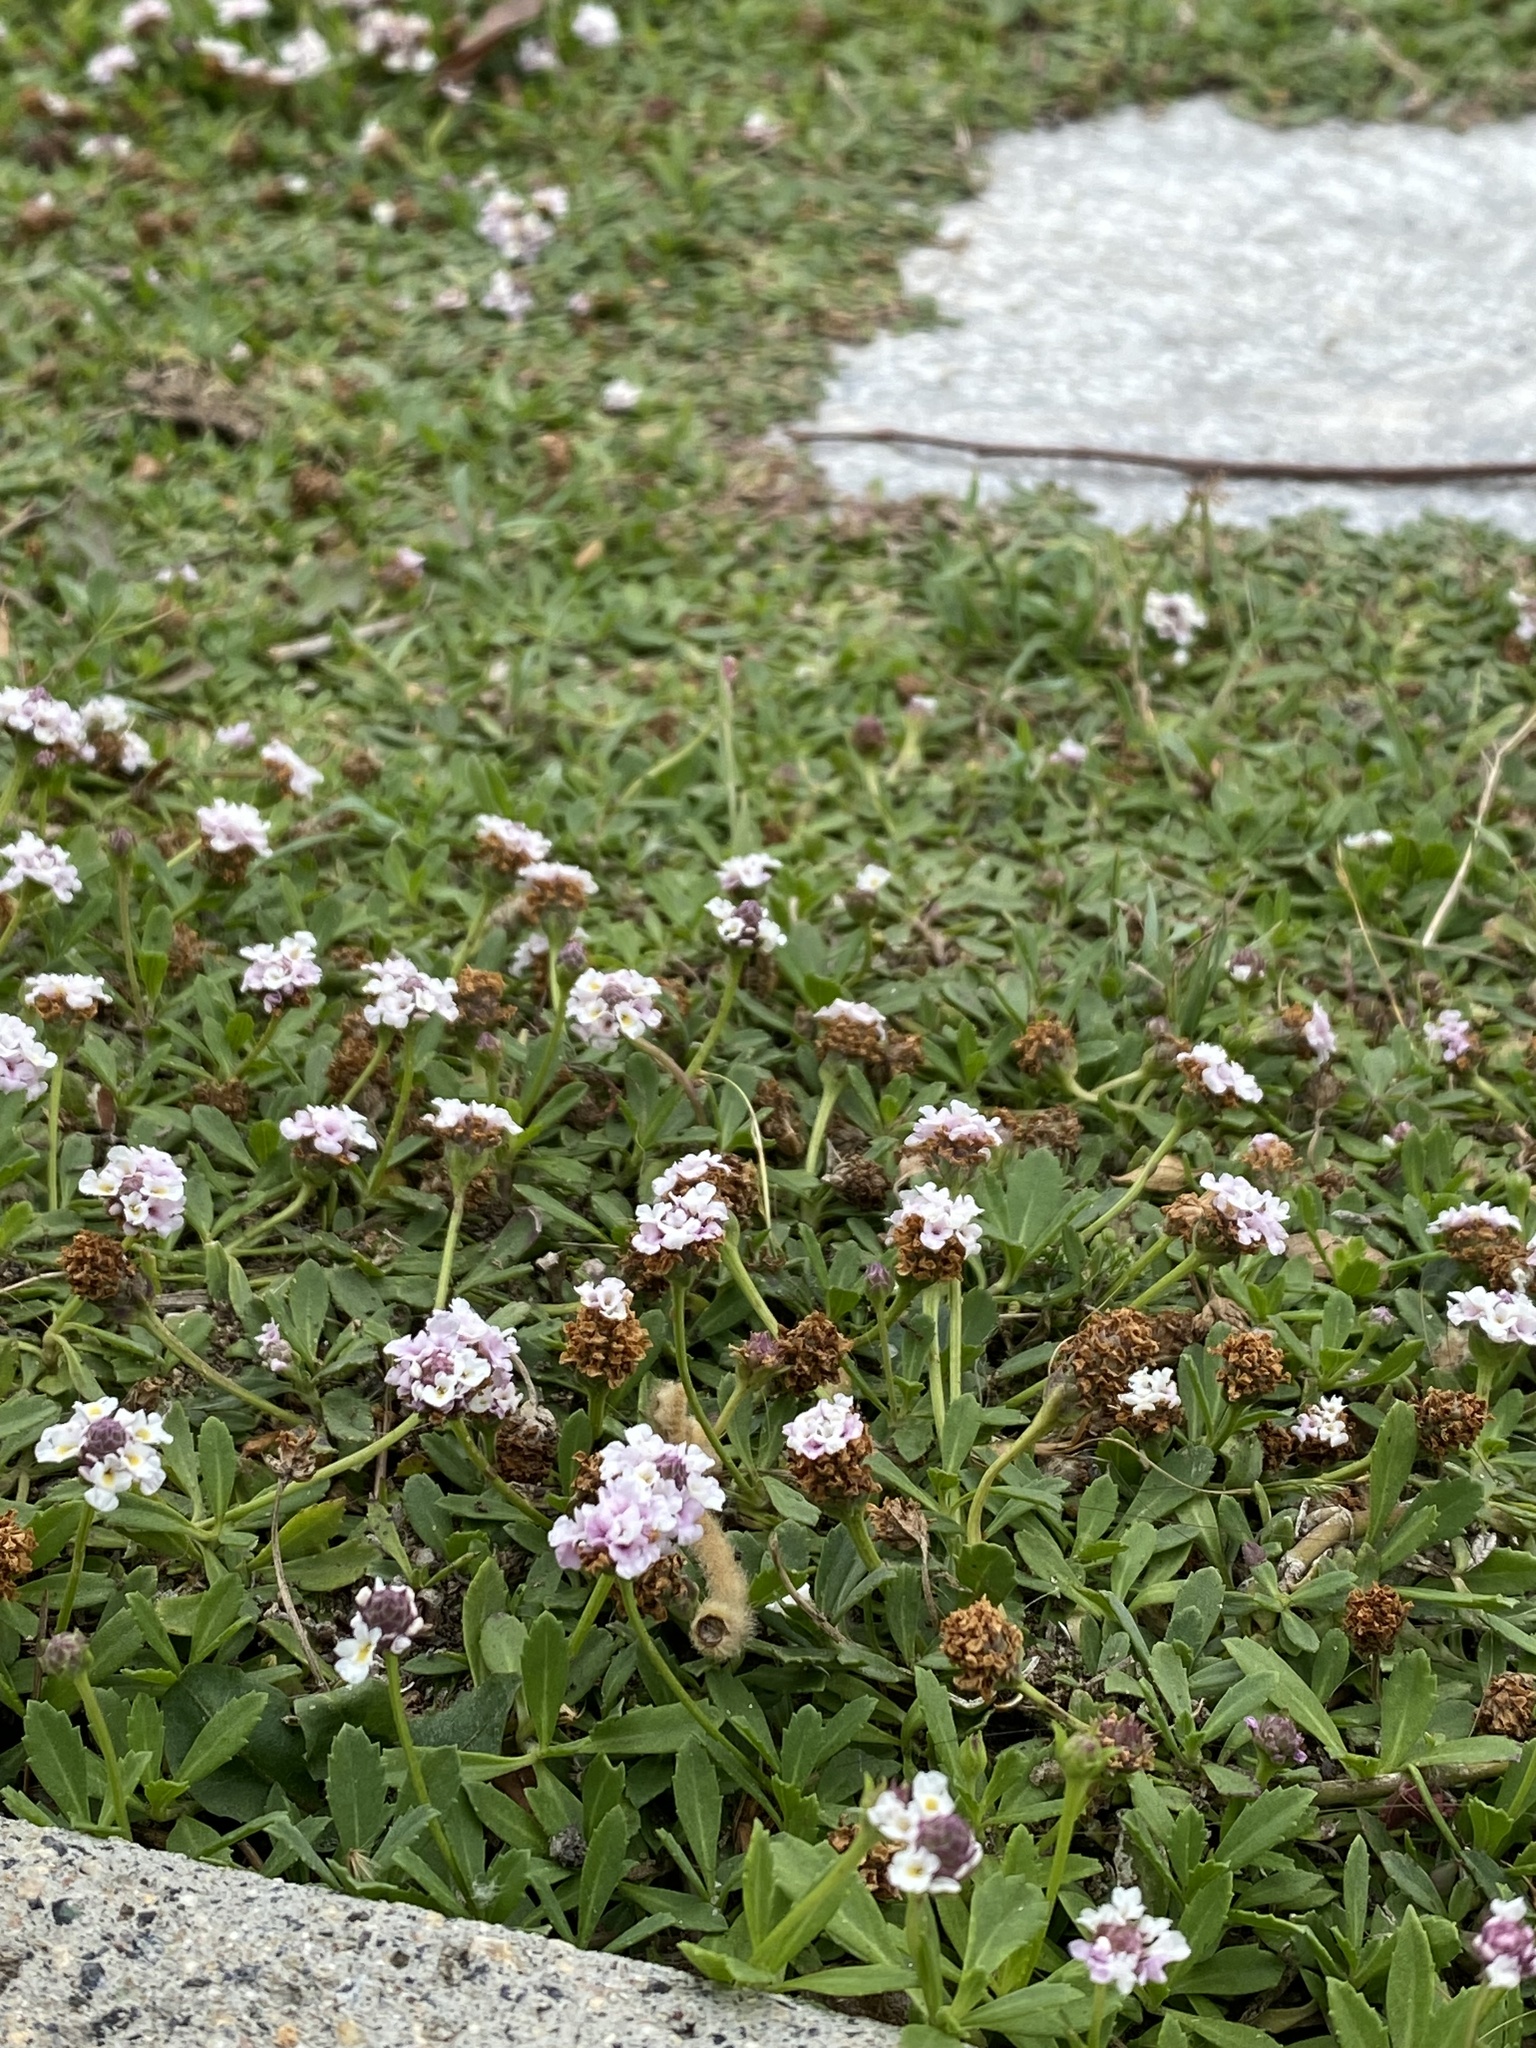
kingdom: Plantae
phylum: Tracheophyta
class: Magnoliopsida
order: Lamiales
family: Verbenaceae
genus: Phyla
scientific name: Phyla nodiflora
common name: Frogfruit
